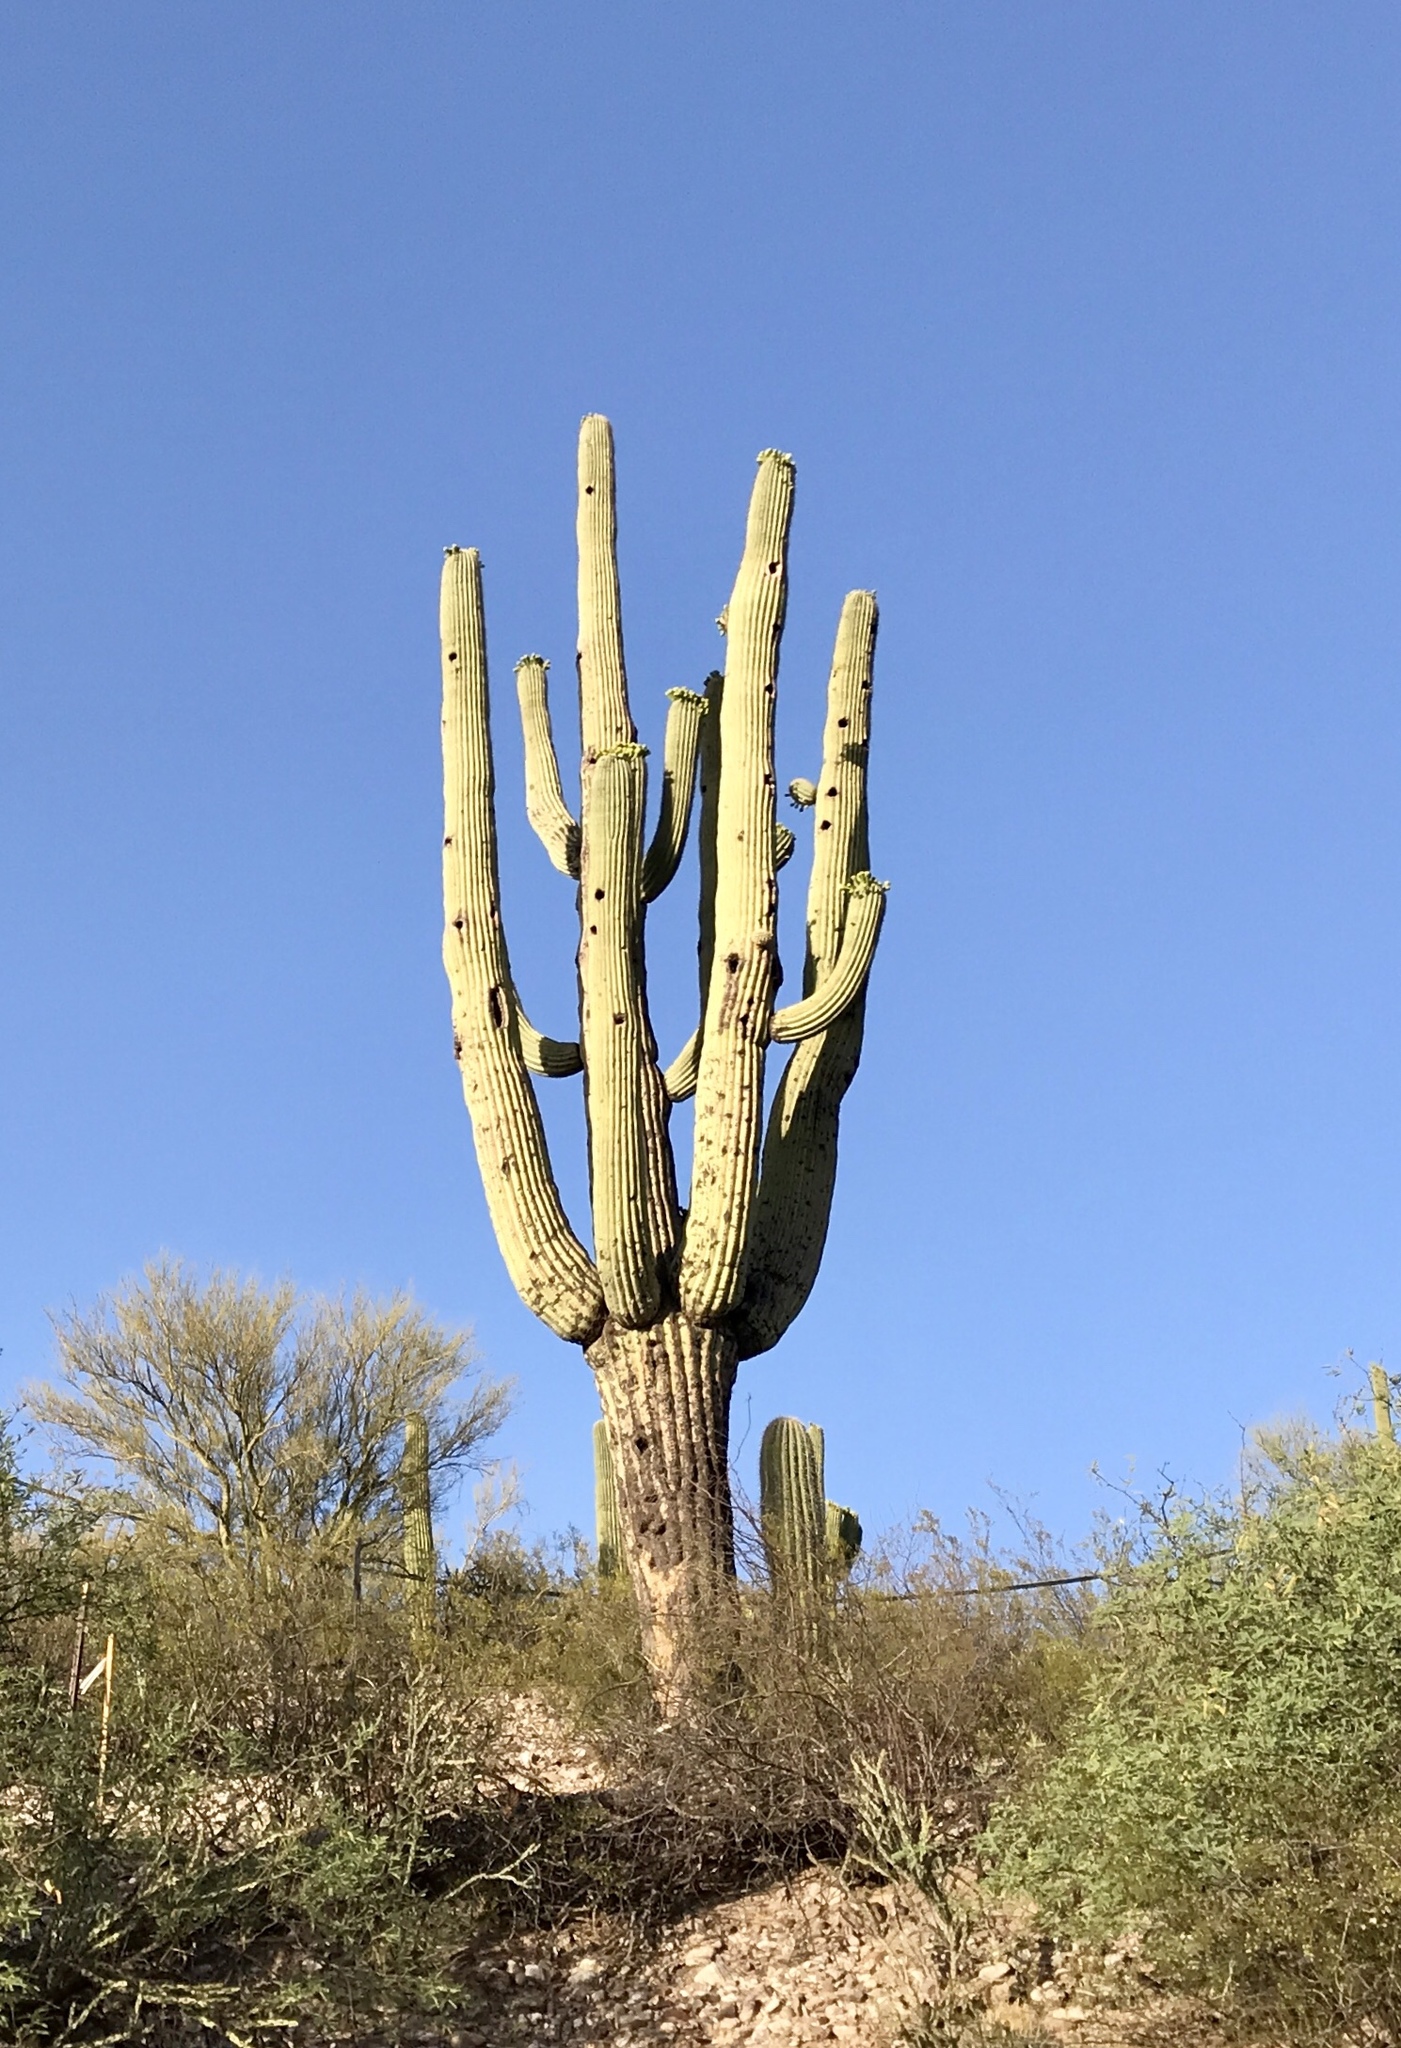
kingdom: Plantae
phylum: Tracheophyta
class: Magnoliopsida
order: Caryophyllales
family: Cactaceae
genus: Carnegiea
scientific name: Carnegiea gigantea
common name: Saguaro
